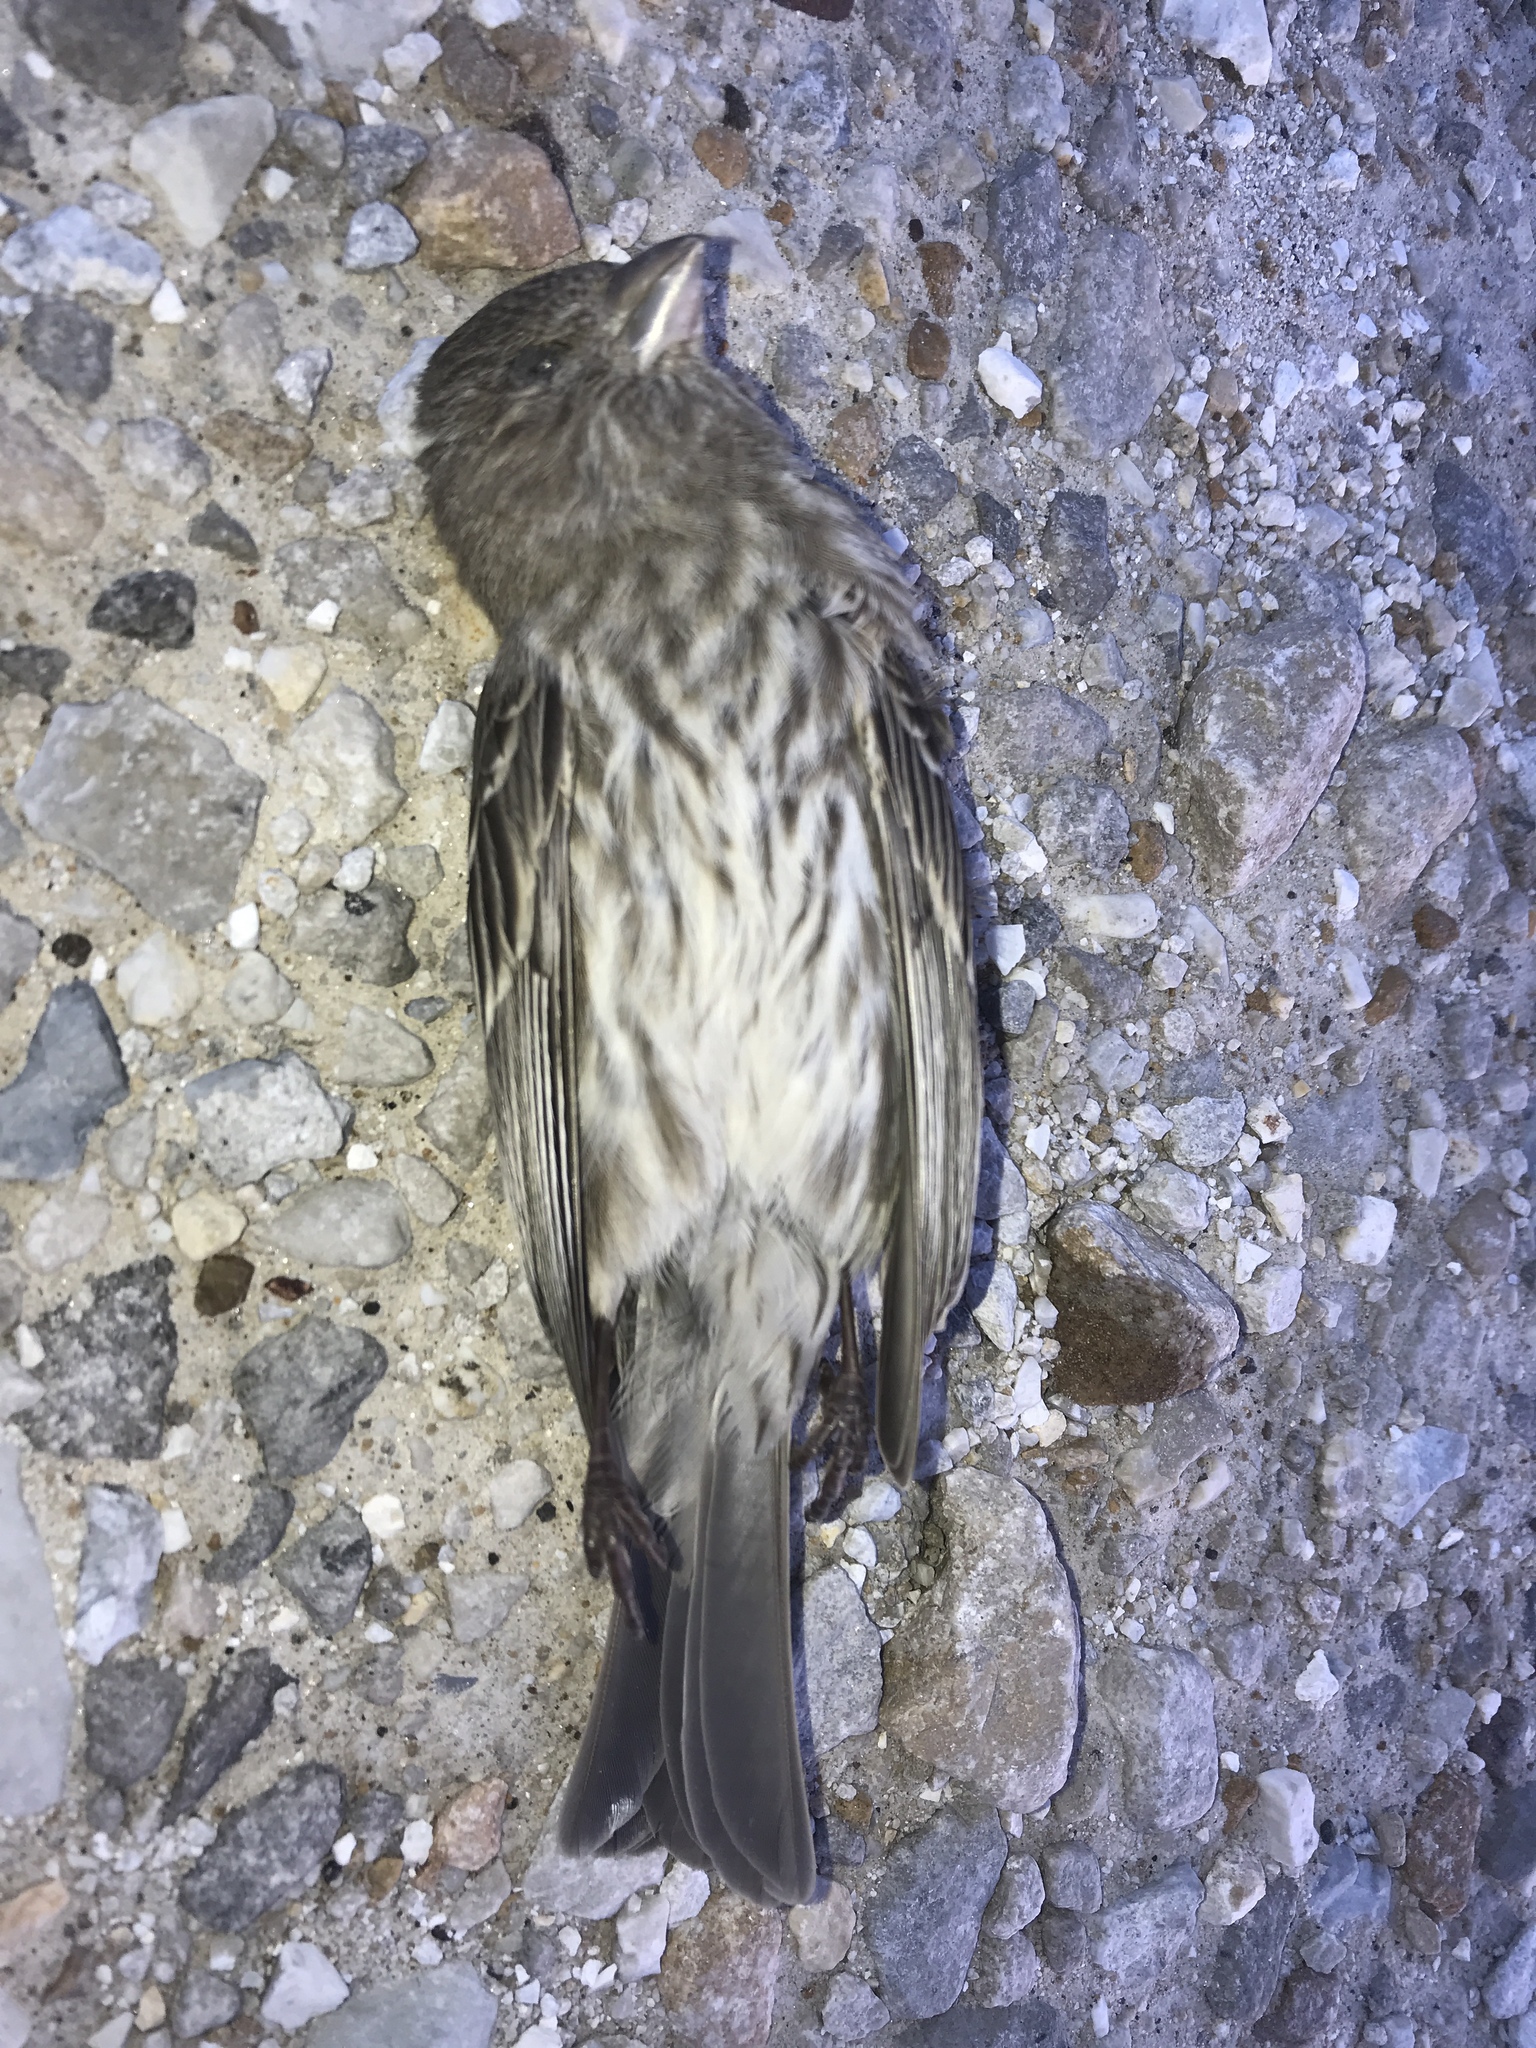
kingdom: Animalia
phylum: Chordata
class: Aves
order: Passeriformes
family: Fringillidae
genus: Haemorhous
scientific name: Haemorhous mexicanus
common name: House finch
